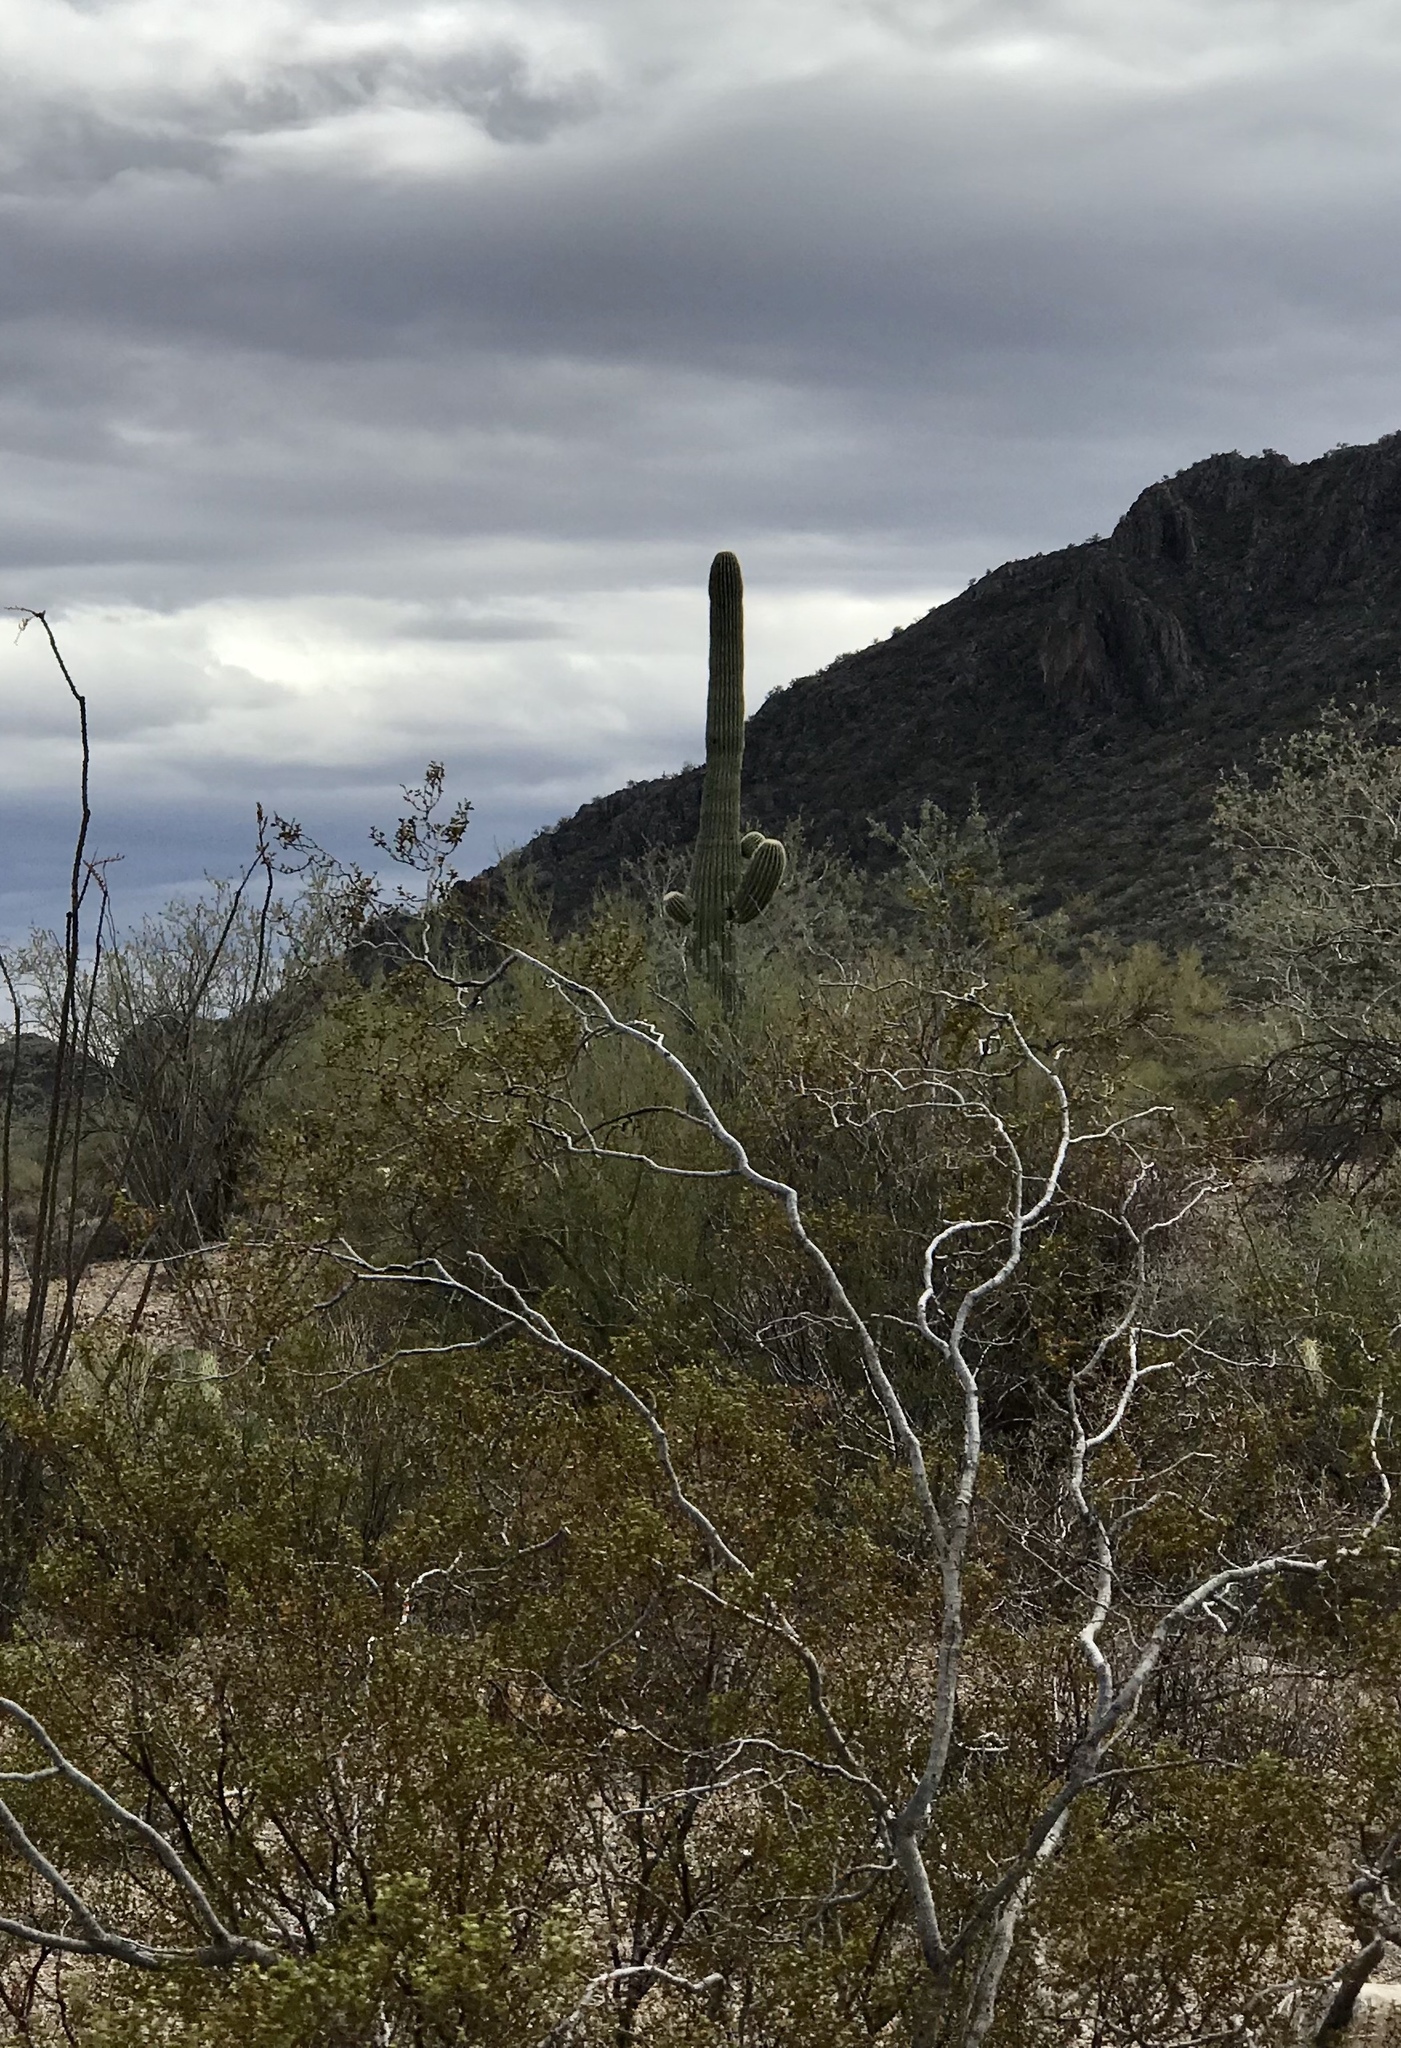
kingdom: Plantae
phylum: Tracheophyta
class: Magnoliopsida
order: Zygophyllales
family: Zygophyllaceae
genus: Larrea
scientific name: Larrea tridentata
